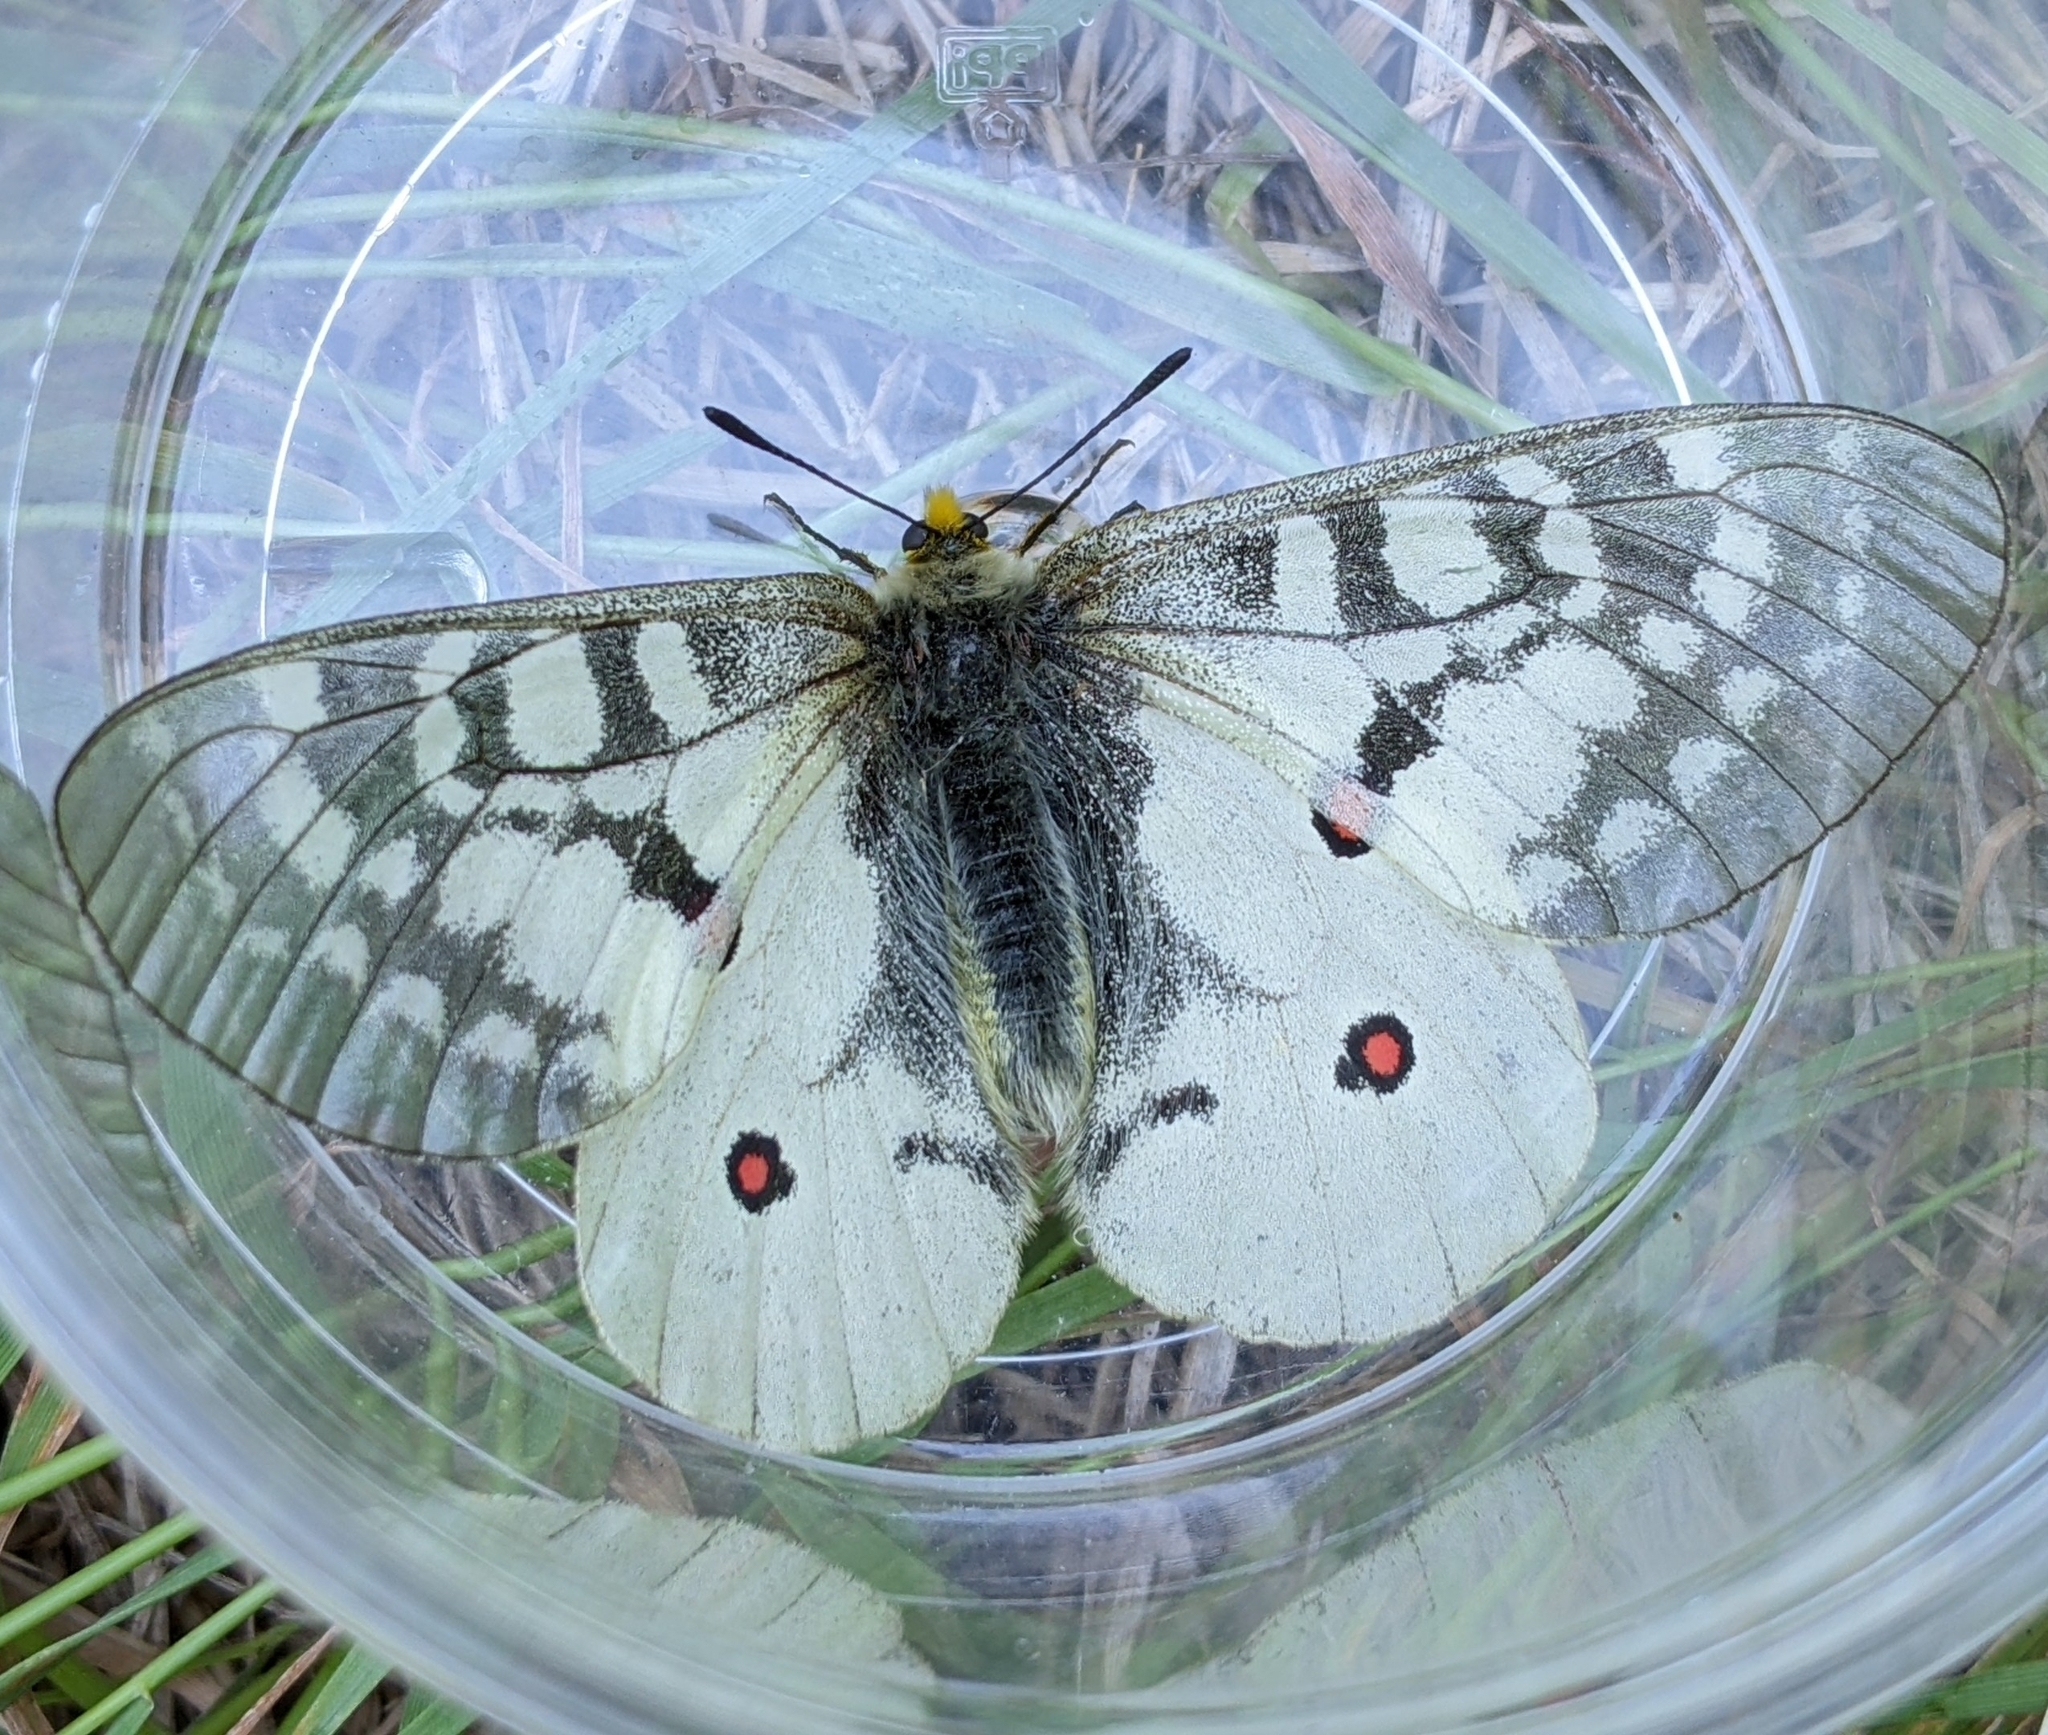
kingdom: Animalia
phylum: Arthropoda
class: Insecta
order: Lepidoptera
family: Papilionidae
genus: Parnassius
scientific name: Parnassius clodius
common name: American apollo
